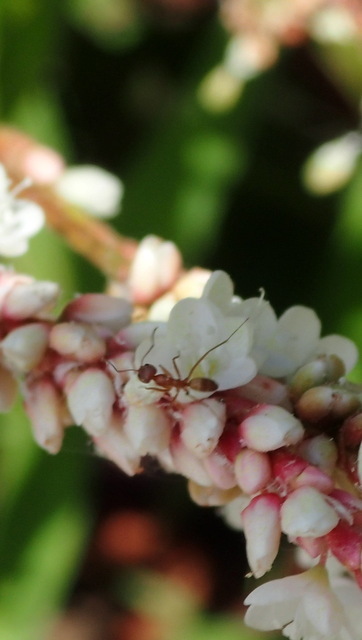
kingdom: Animalia
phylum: Arthropoda
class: Insecta
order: Hymenoptera
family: Formicidae
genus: Dorymyrmex
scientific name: Dorymyrmex bureni
